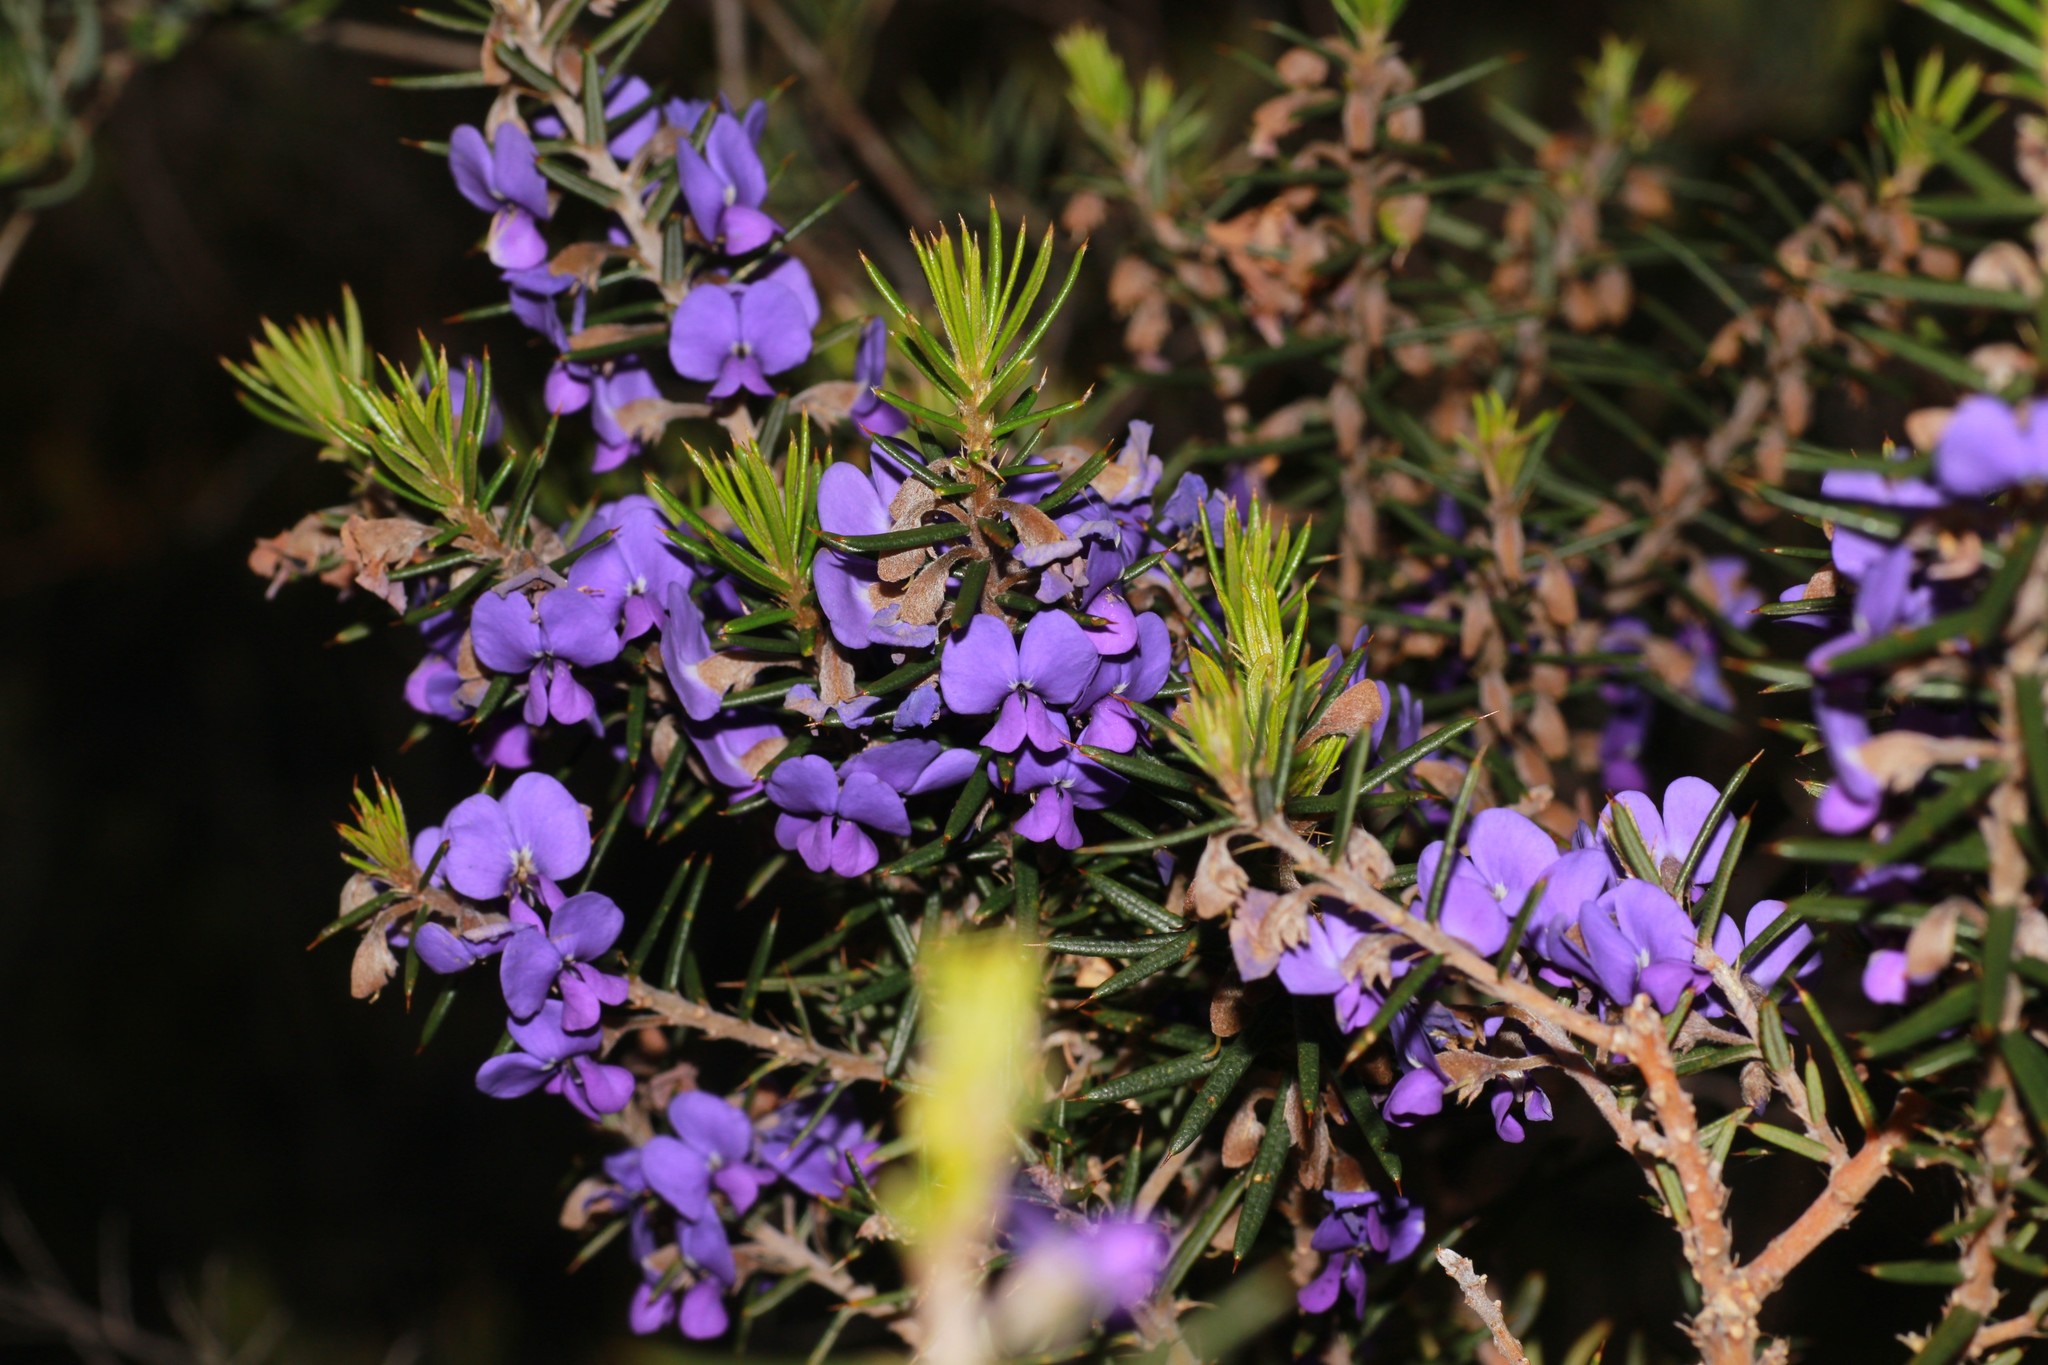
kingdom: Plantae
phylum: Tracheophyta
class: Magnoliopsida
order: Fabales
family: Fabaceae
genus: Hovea
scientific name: Hovea pungens
